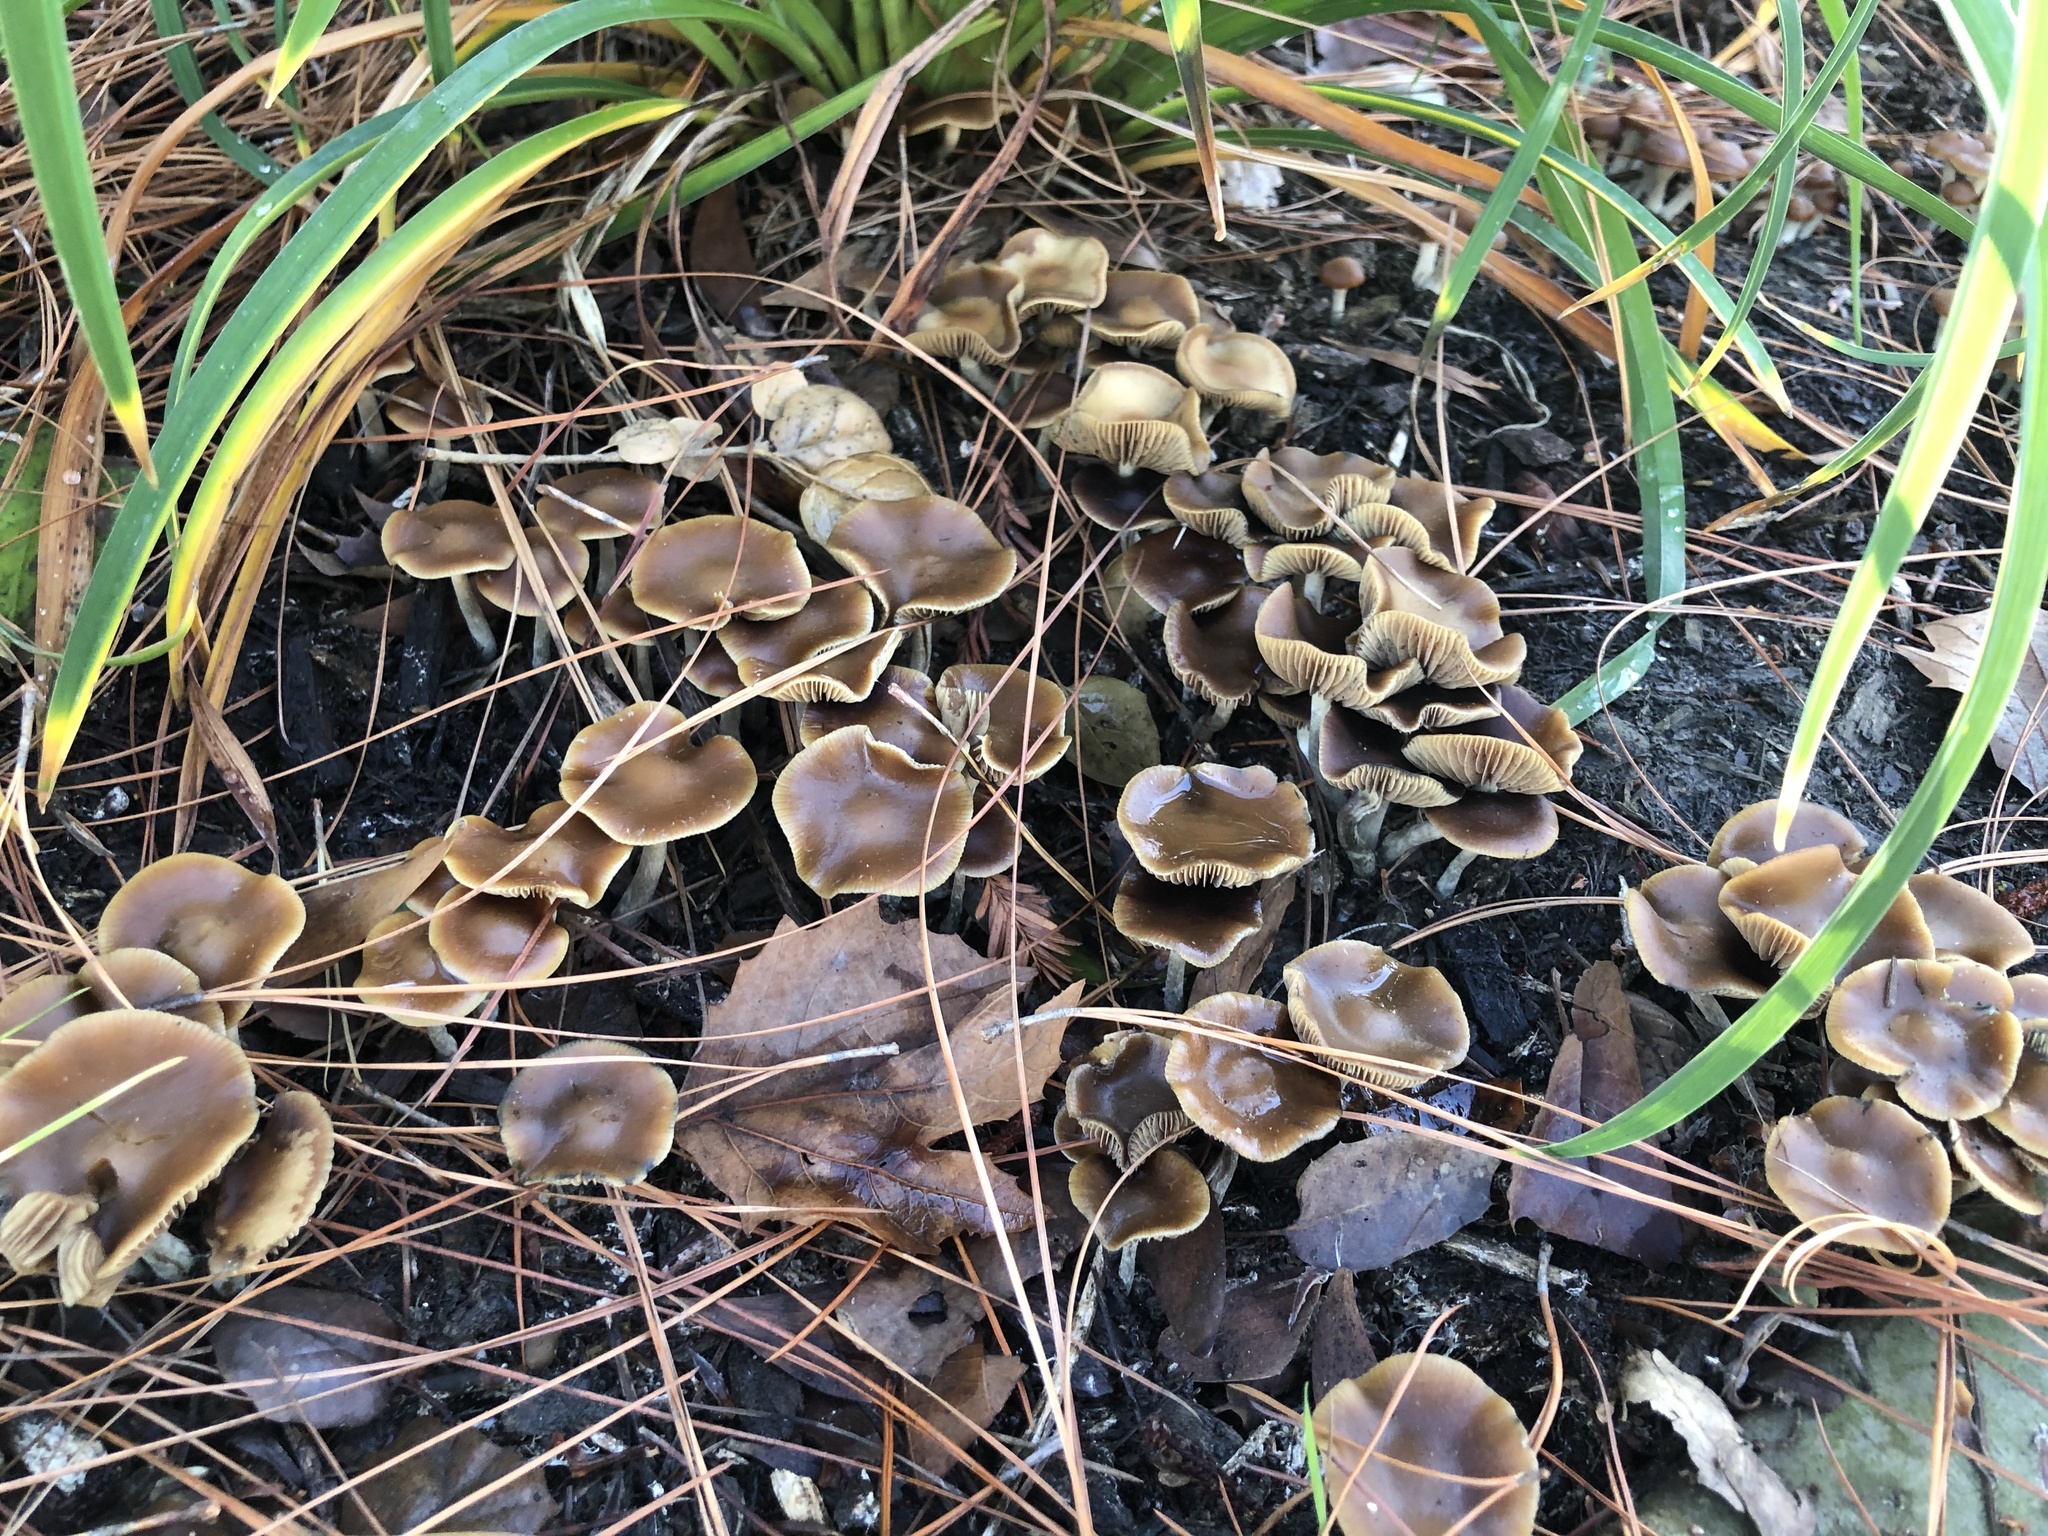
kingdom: Fungi
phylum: Basidiomycota
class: Agaricomycetes
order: Agaricales
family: Hymenogastraceae
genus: Psilocybe
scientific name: Psilocybe cyanescens
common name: Blueleg brownie
